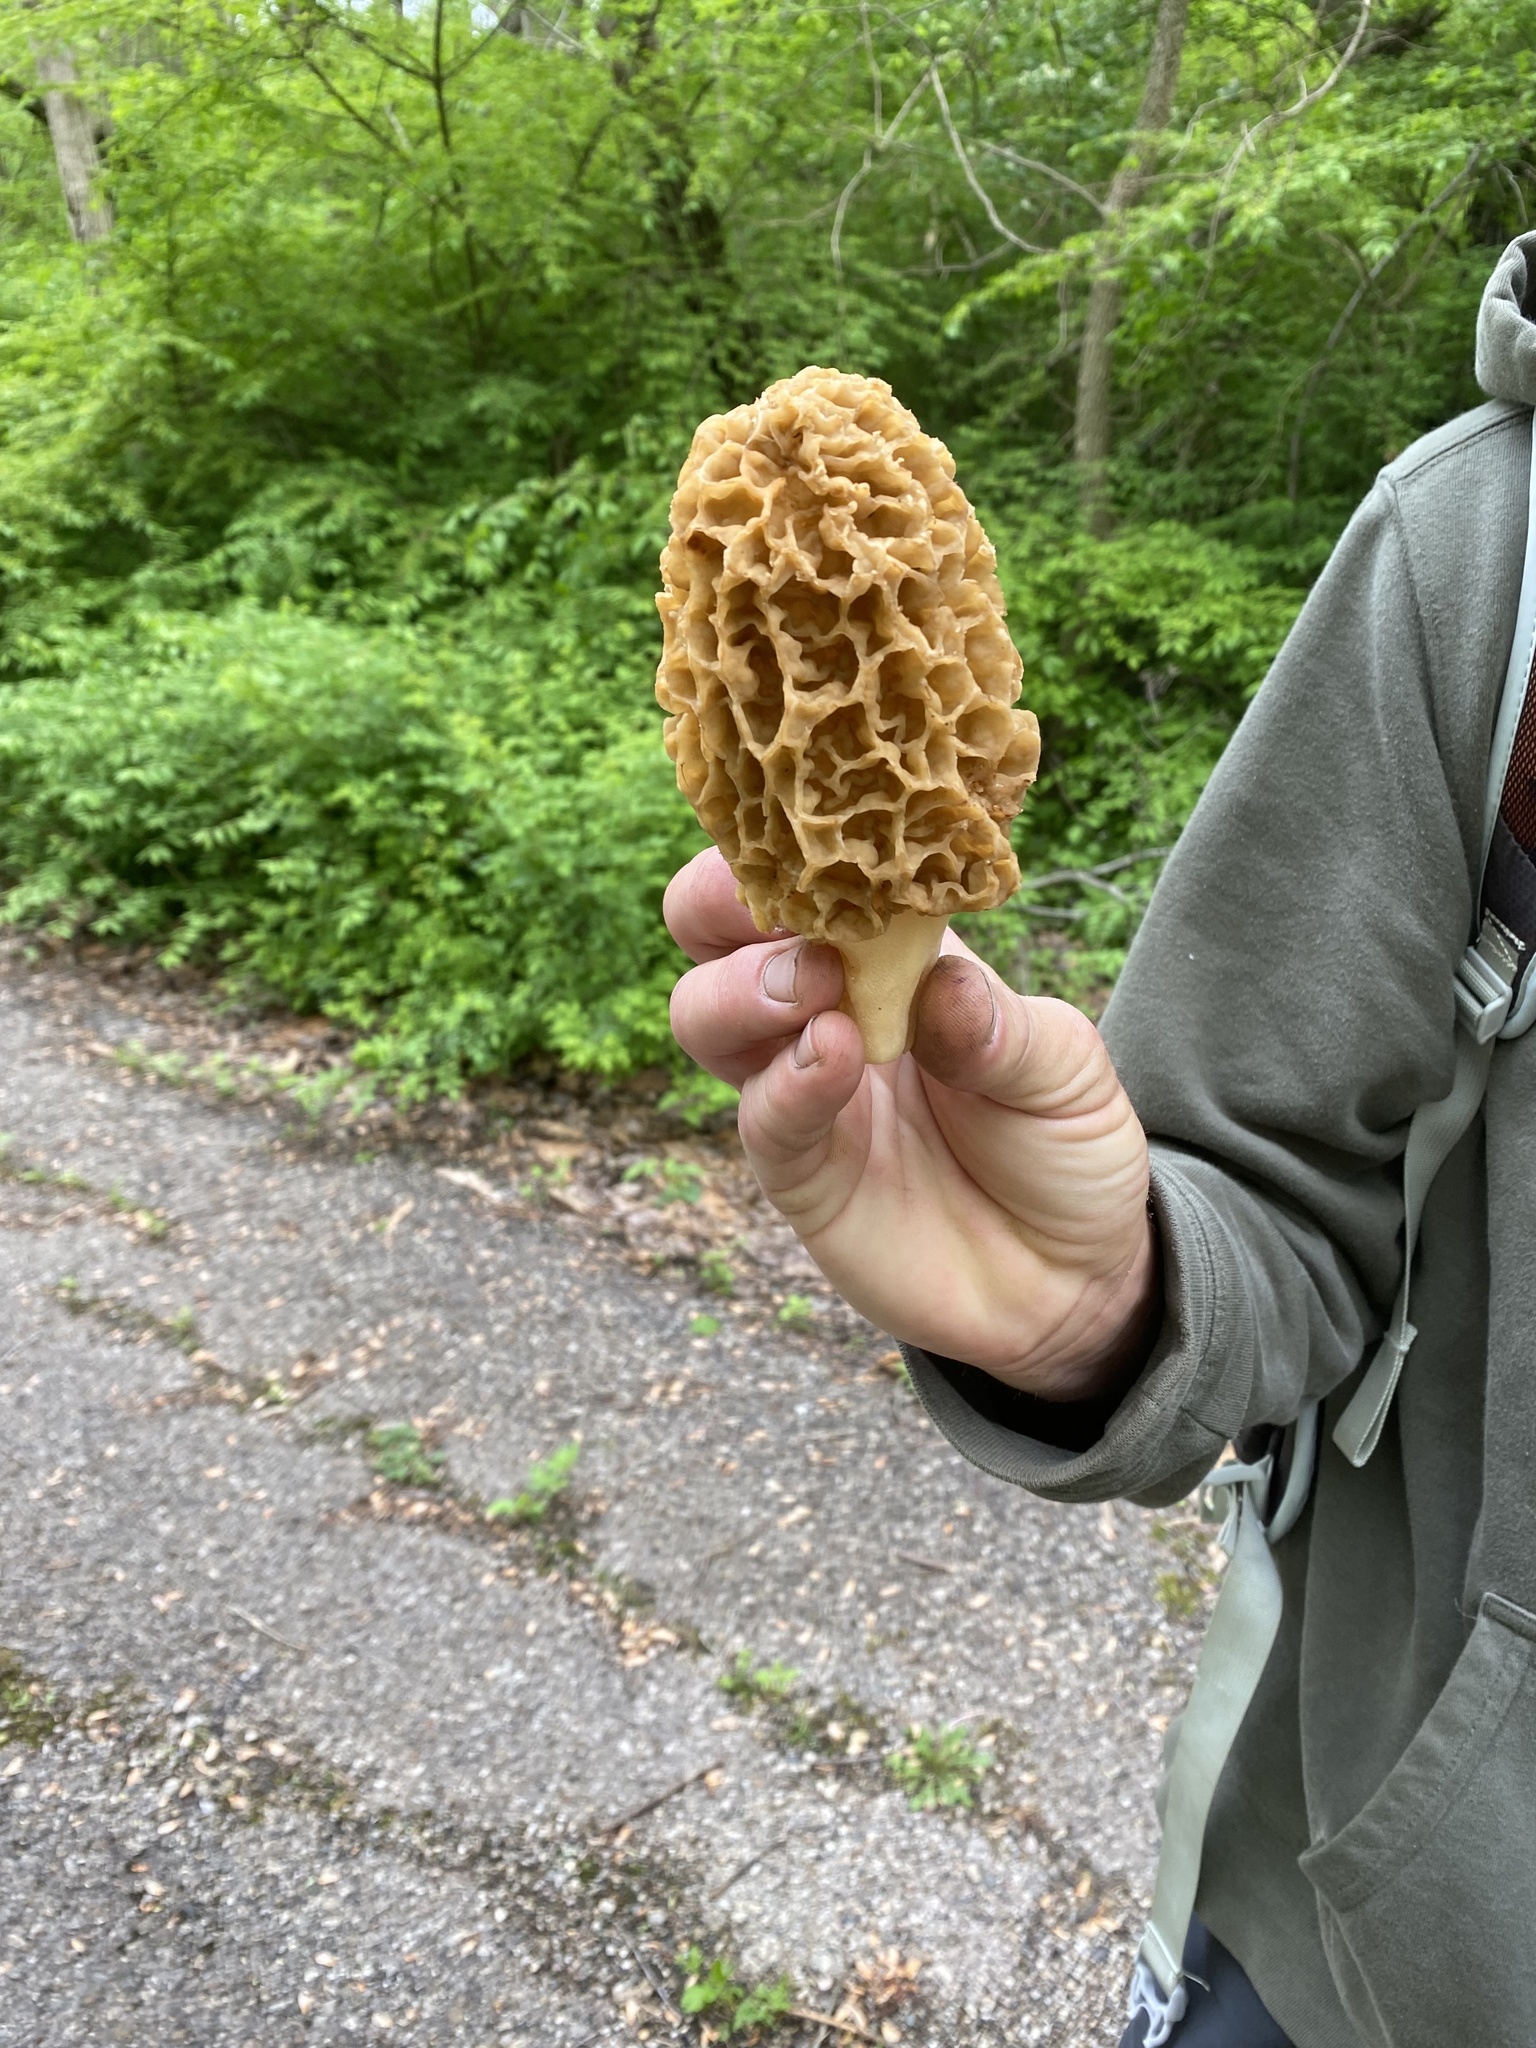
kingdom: Fungi
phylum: Ascomycota
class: Pezizomycetes
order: Pezizales
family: Morchellaceae
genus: Morchella
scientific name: Morchella americana
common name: White morel
